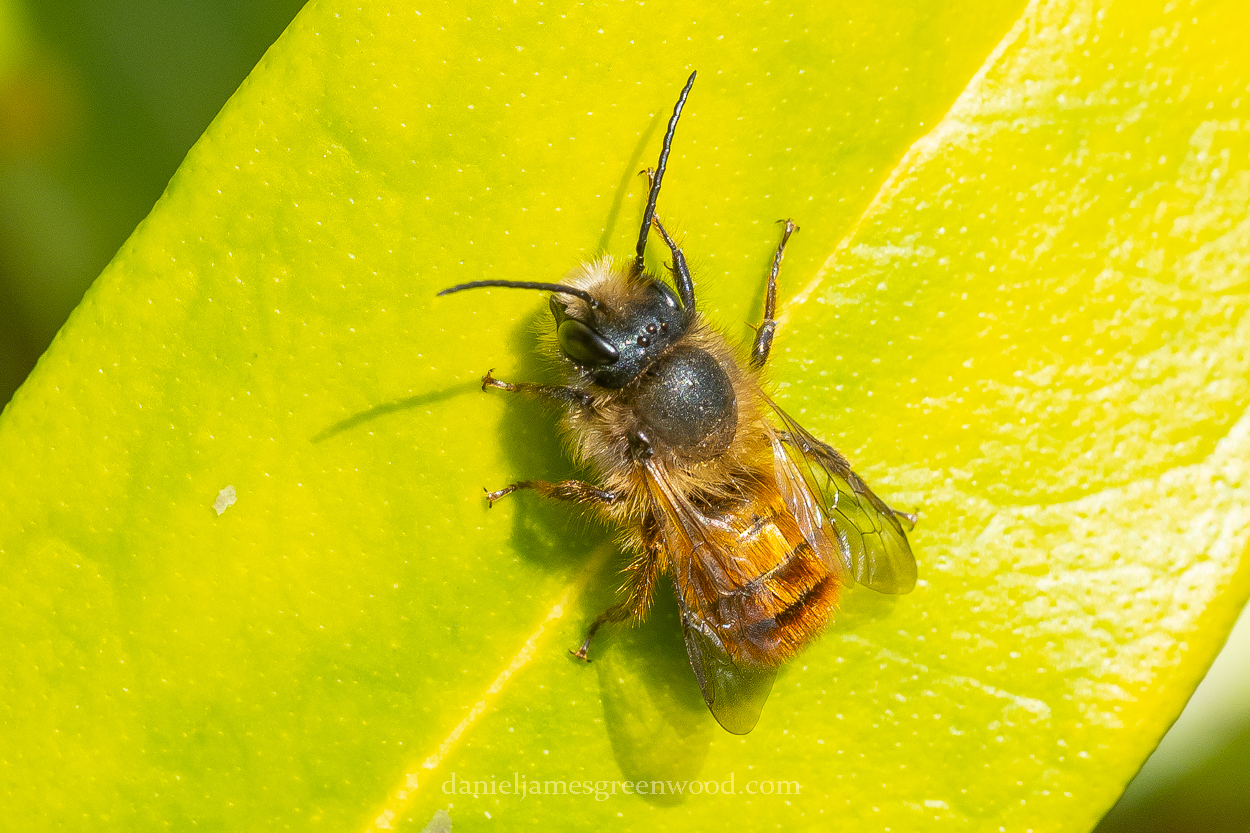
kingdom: Animalia
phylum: Arthropoda
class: Insecta
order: Hymenoptera
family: Megachilidae
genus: Osmia
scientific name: Osmia bicornis
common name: Red mason bee
